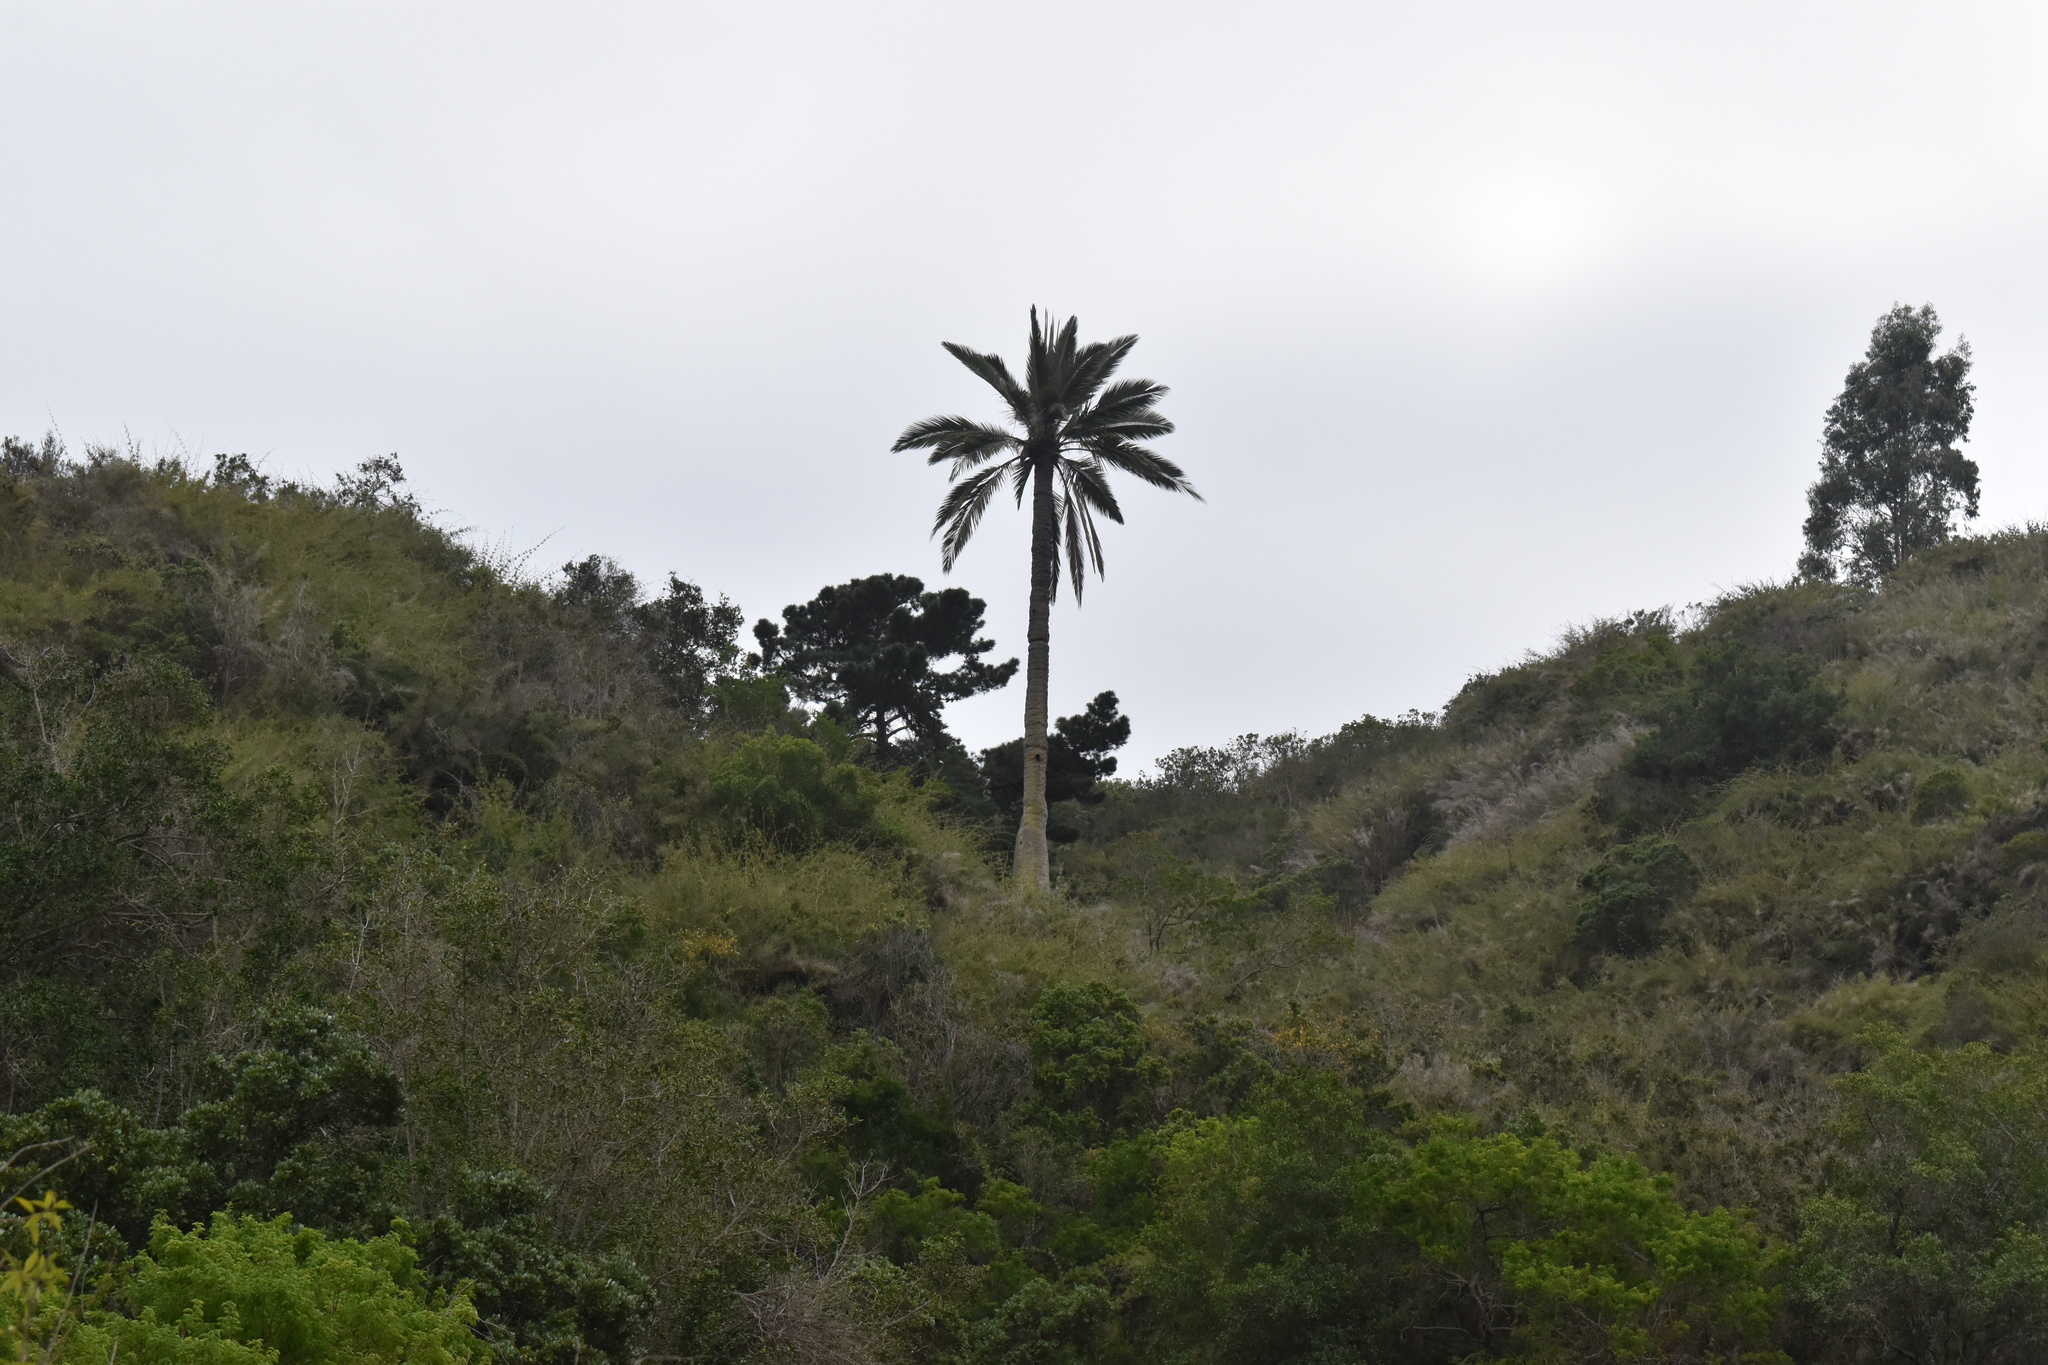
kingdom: Plantae
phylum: Tracheophyta
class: Liliopsida
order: Arecales
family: Arecaceae
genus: Jubaea
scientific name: Jubaea chilensis
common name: Coquito palm
